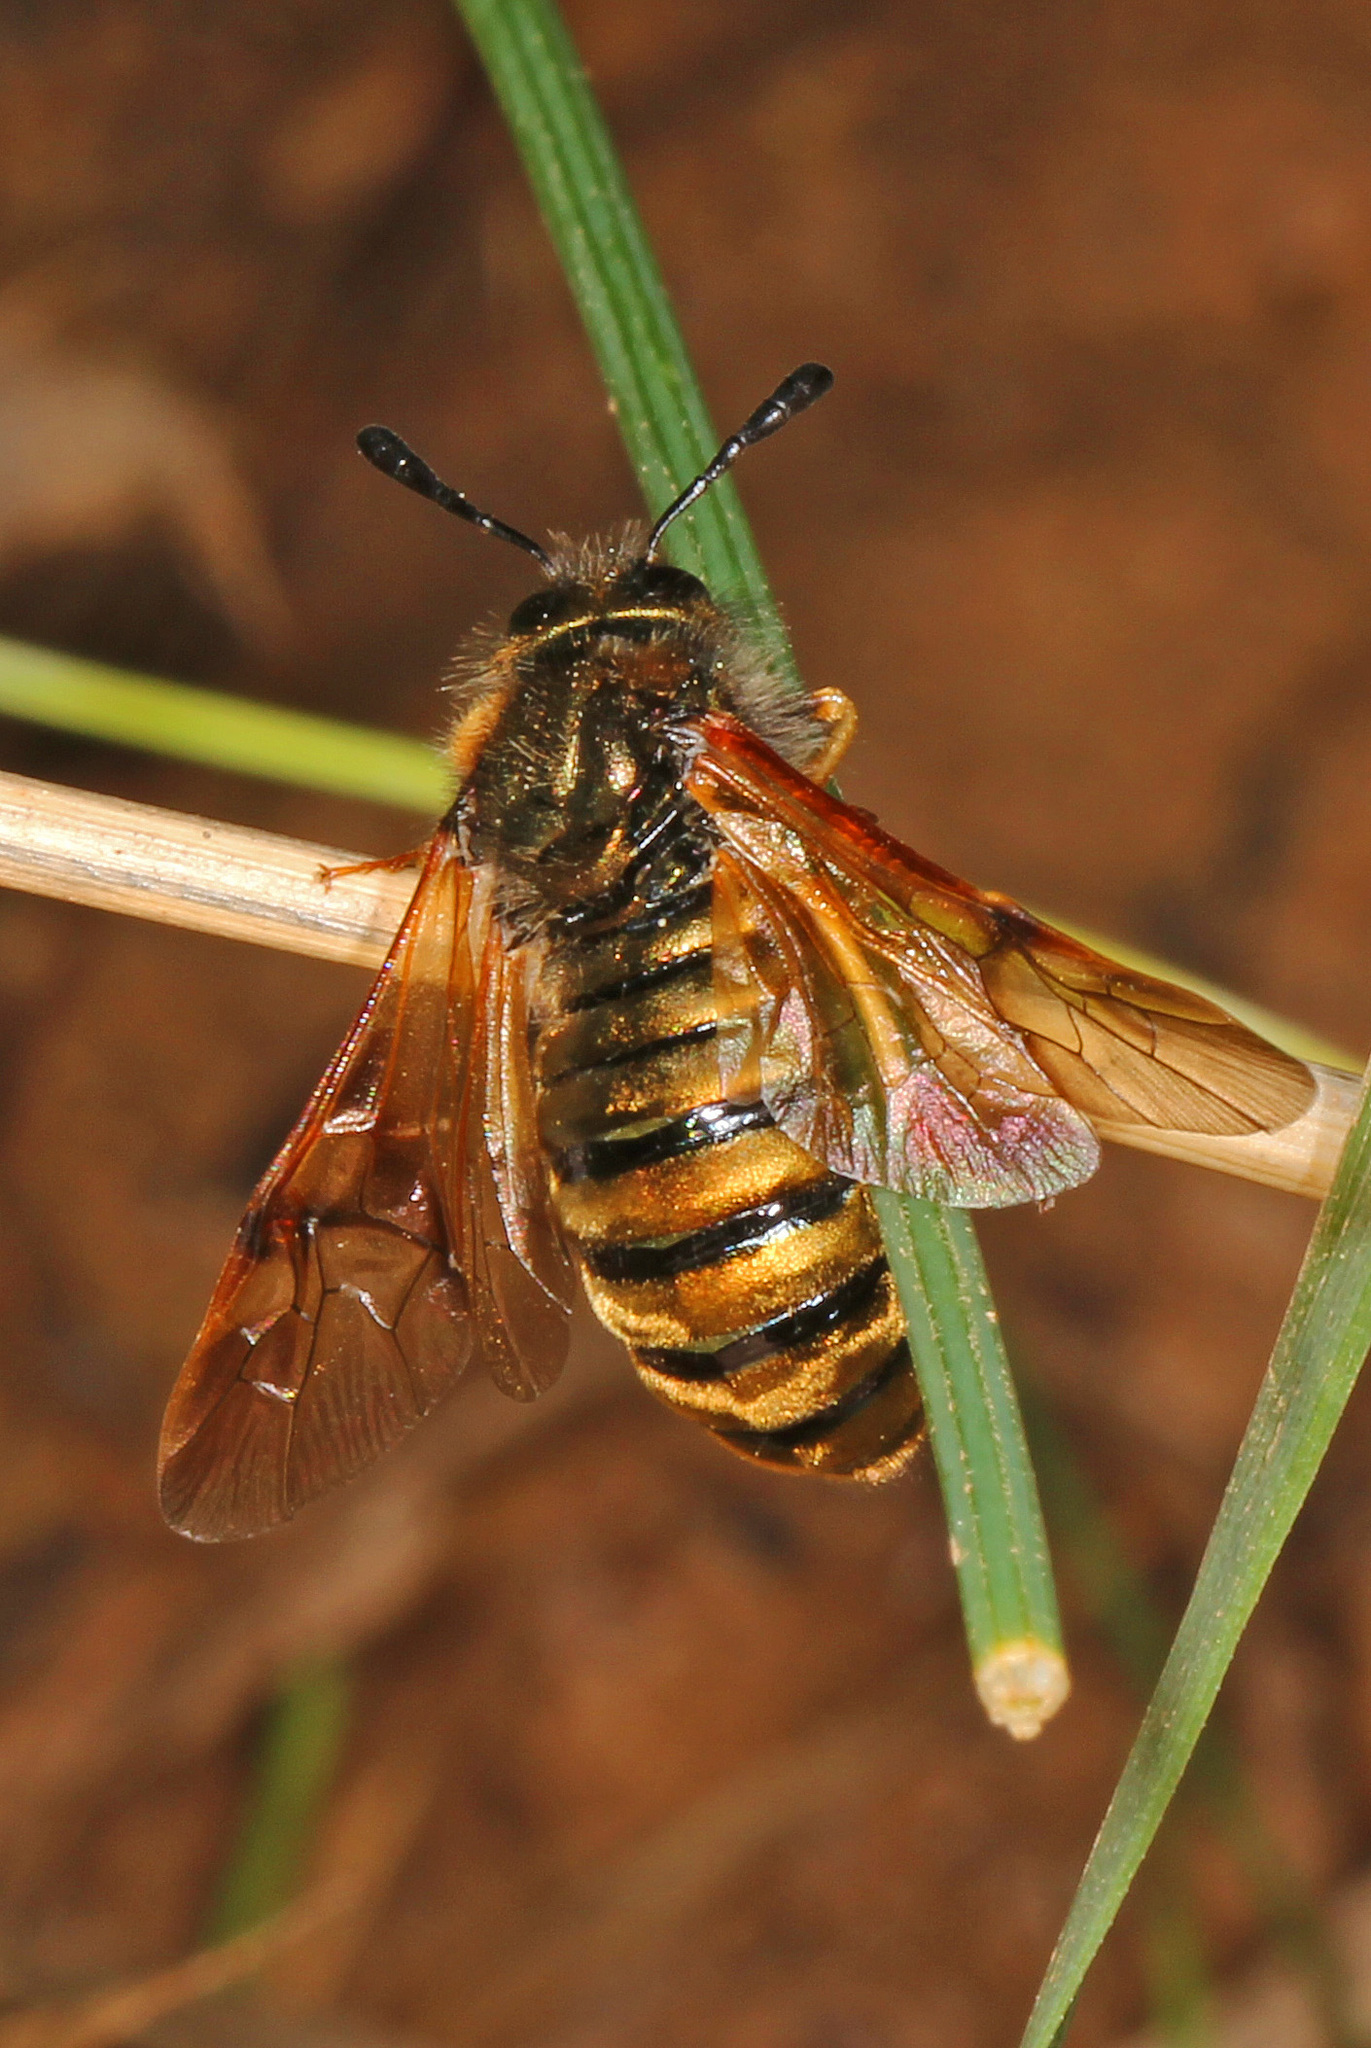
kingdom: Animalia
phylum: Arthropoda
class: Insecta
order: Hymenoptera
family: Cimbicidae
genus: Abia
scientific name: Abia lonicerae
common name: Cimbicid sawfly
